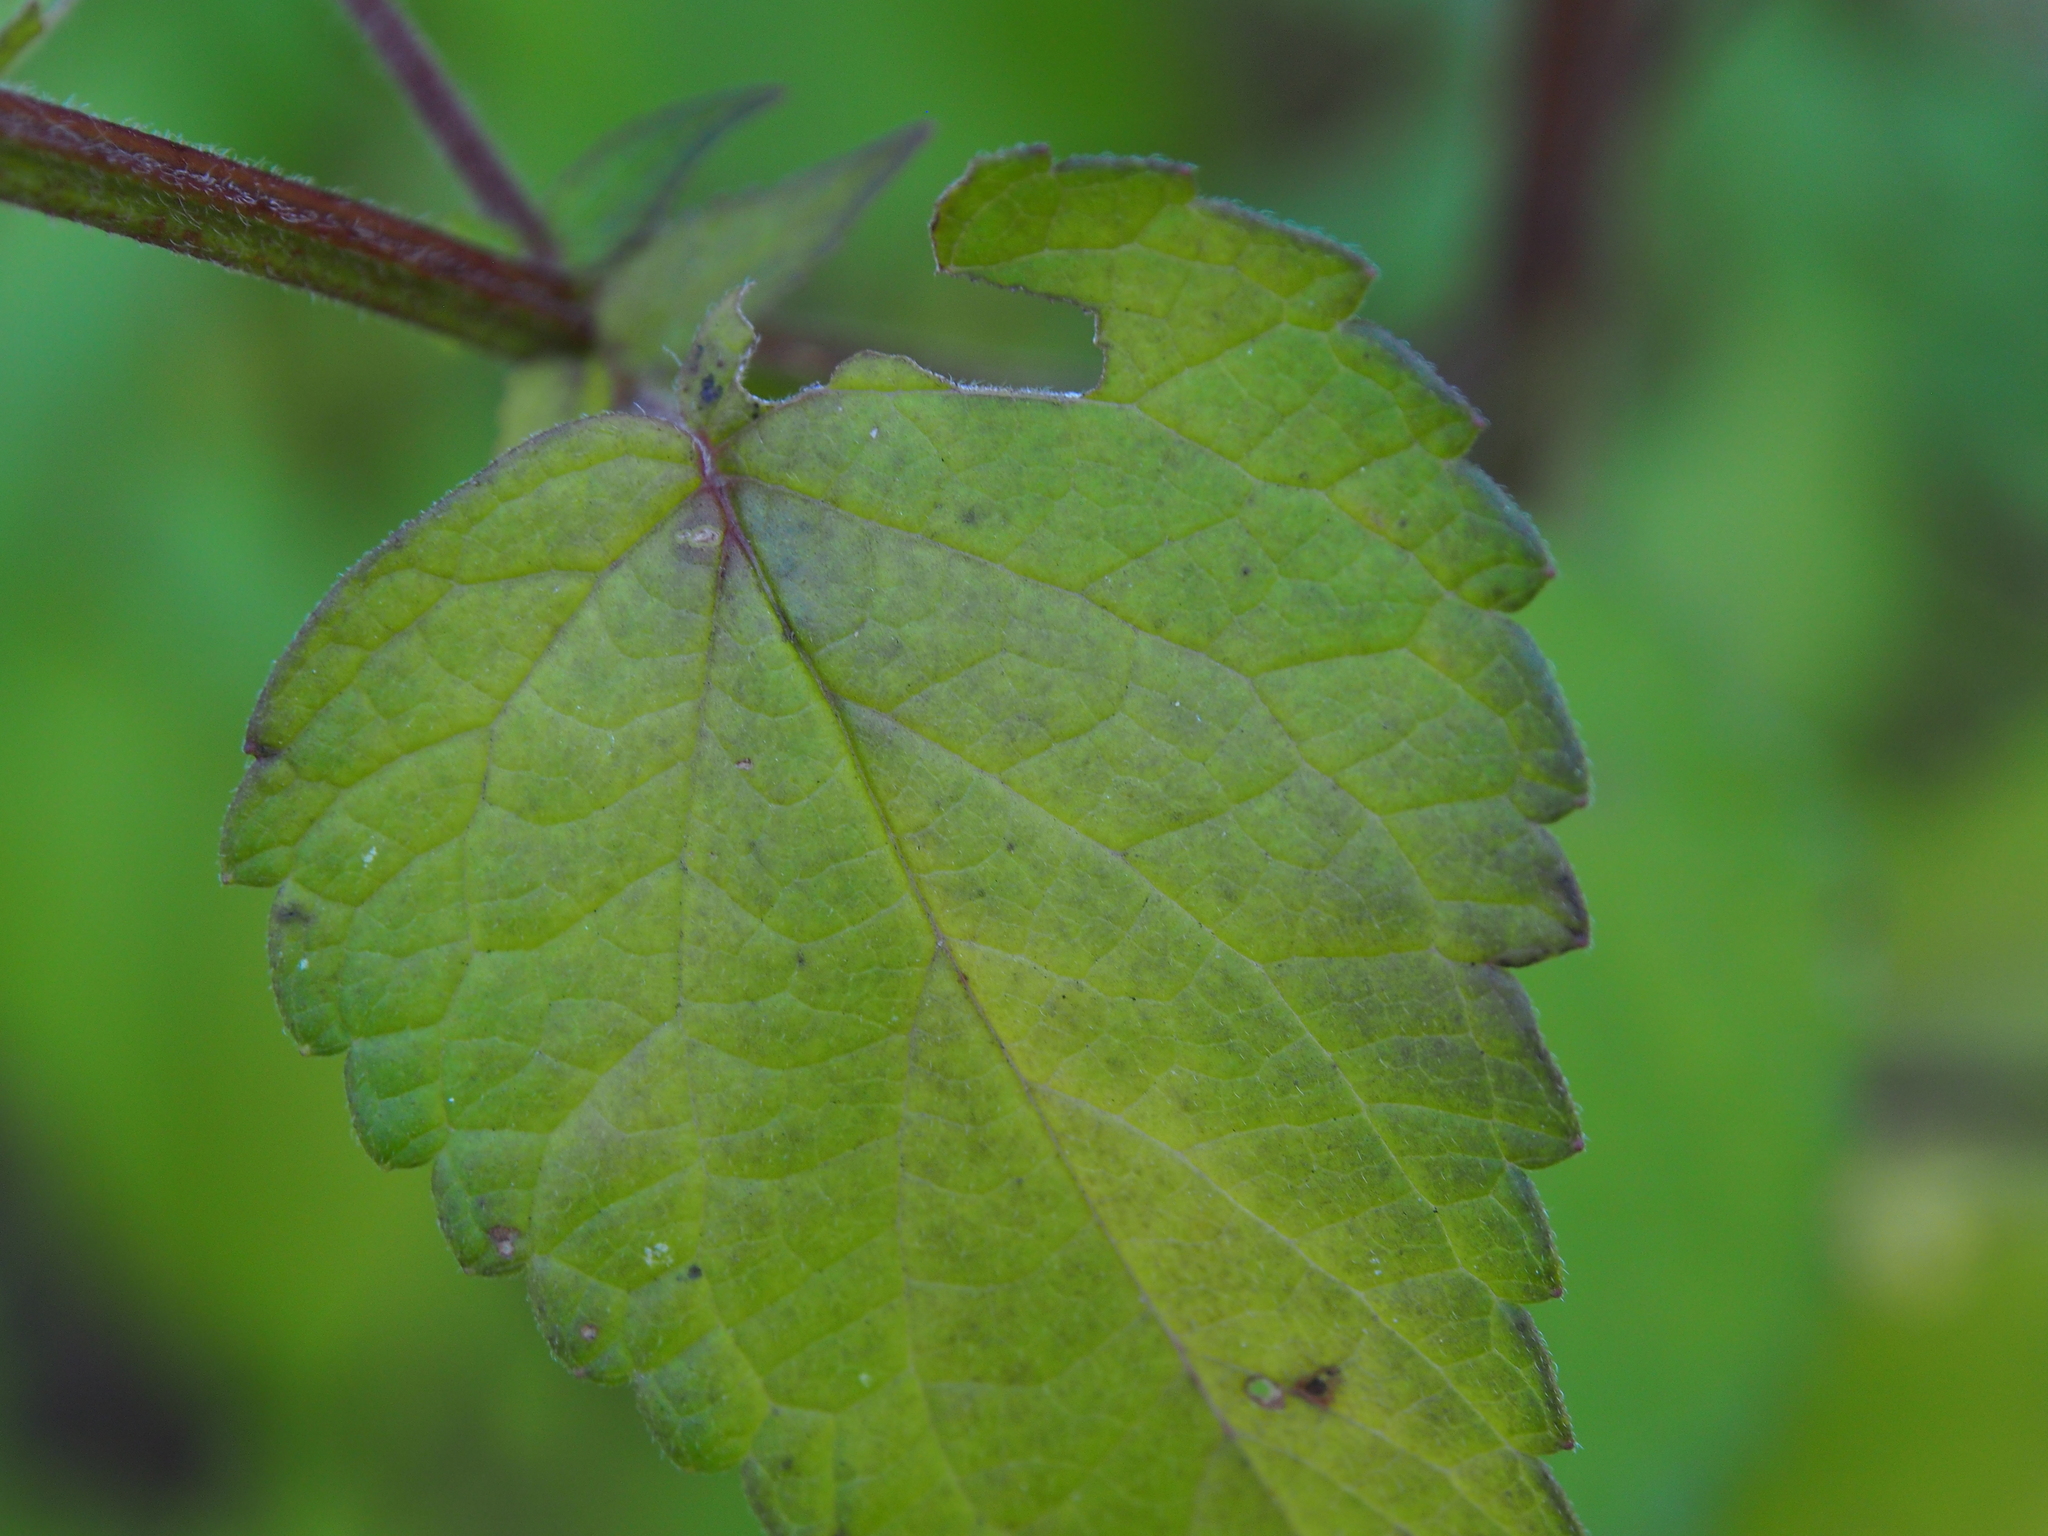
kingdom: Plantae
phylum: Tracheophyta
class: Magnoliopsida
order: Lamiales
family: Lamiaceae
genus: Agastache
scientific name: Agastache scrophulariifolia
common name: Figwort giant hyssop
